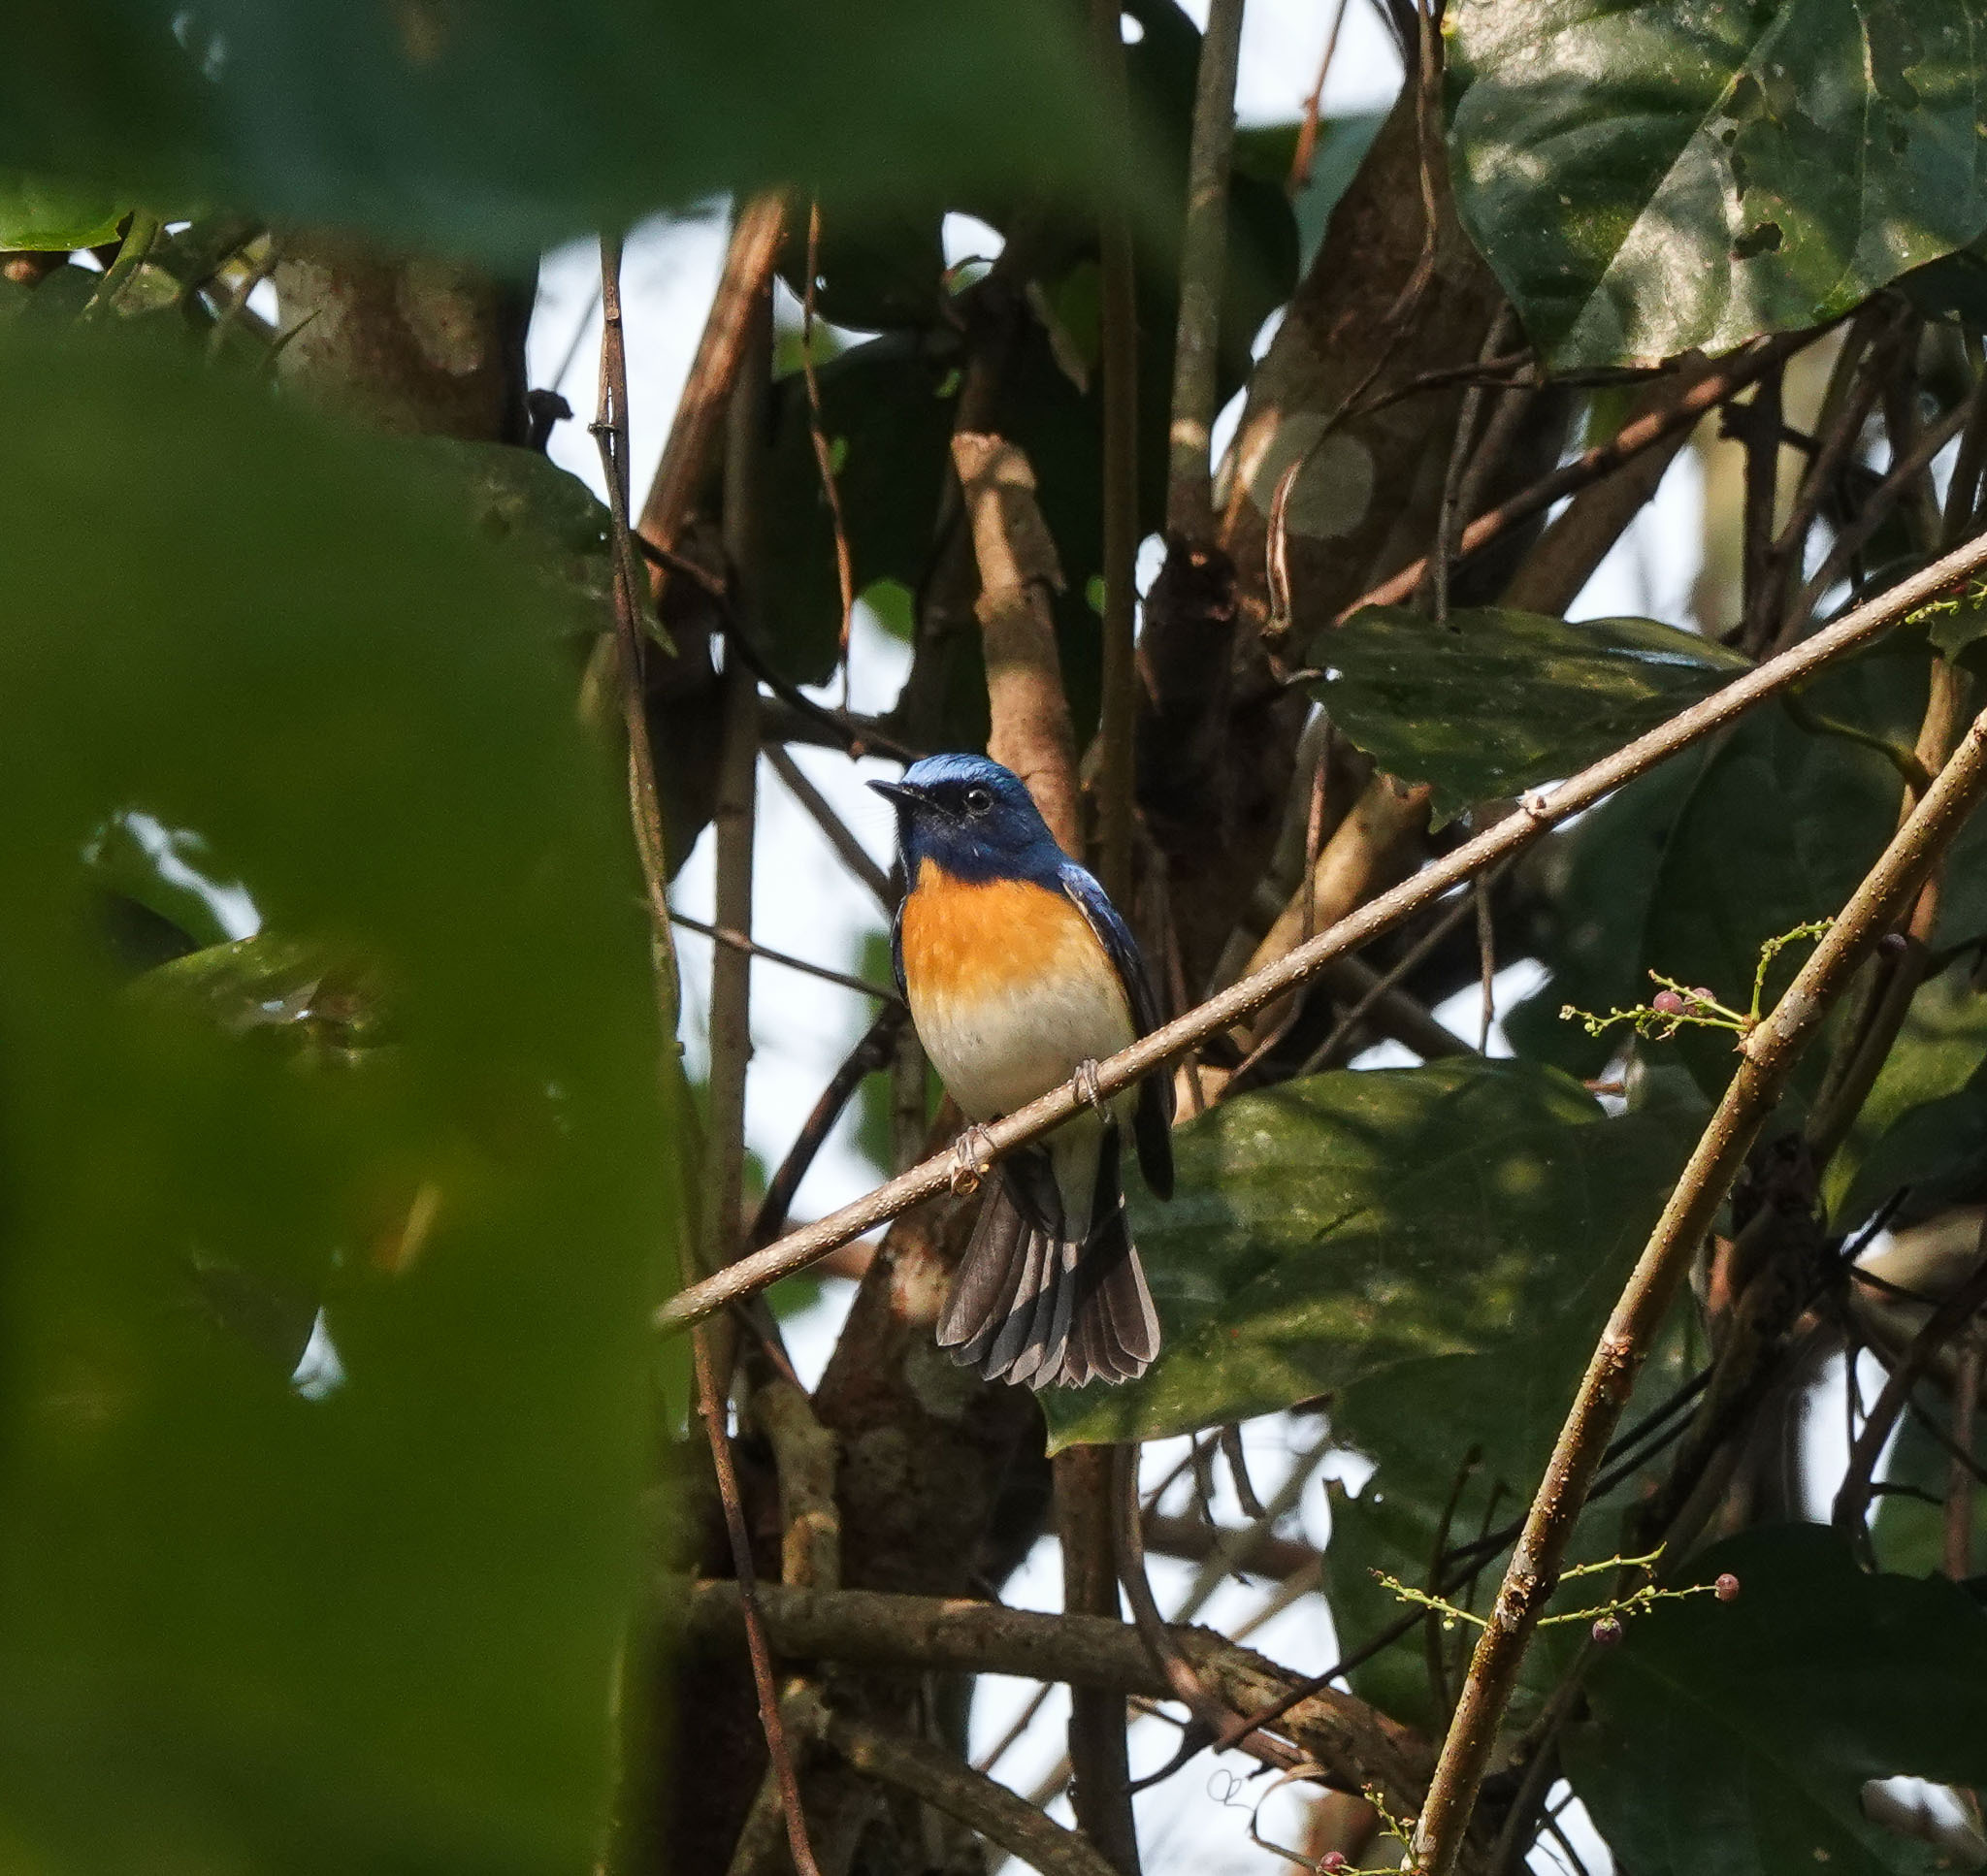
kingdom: Animalia
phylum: Chordata
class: Aves
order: Passeriformes
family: Muscicapidae
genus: Cyornis
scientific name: Cyornis rubeculoides
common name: Blue-throated blue flycatcher
